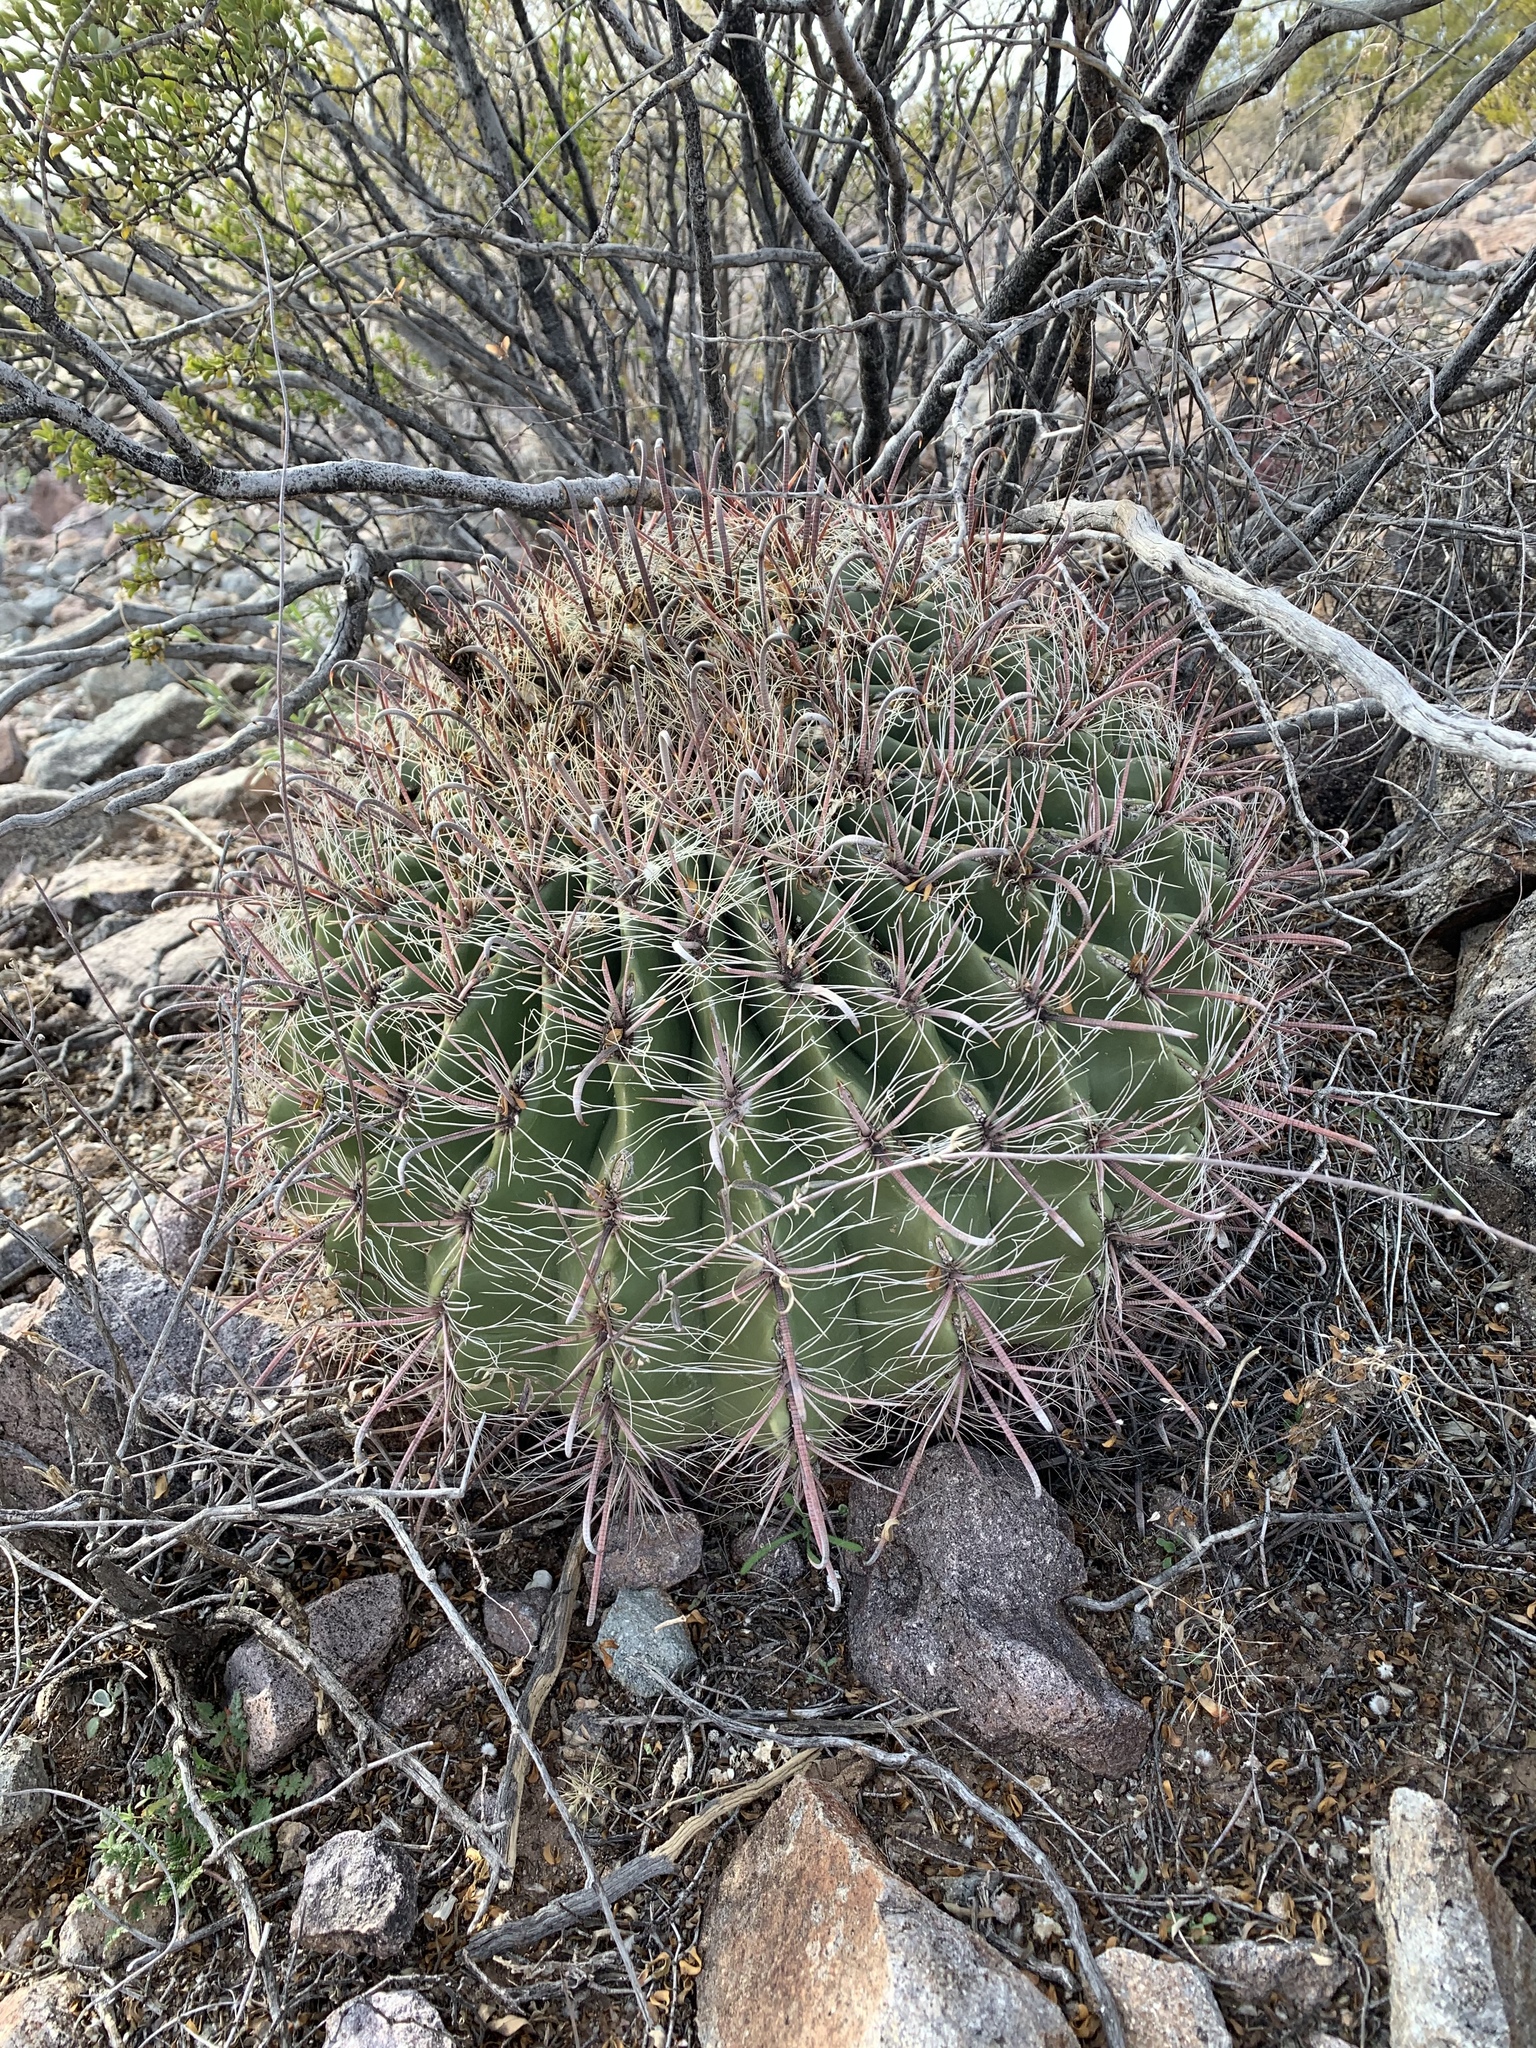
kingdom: Plantae
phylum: Tracheophyta
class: Magnoliopsida
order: Caryophyllales
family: Cactaceae
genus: Ferocactus
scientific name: Ferocactus wislizeni
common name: Candy barrel cactus
